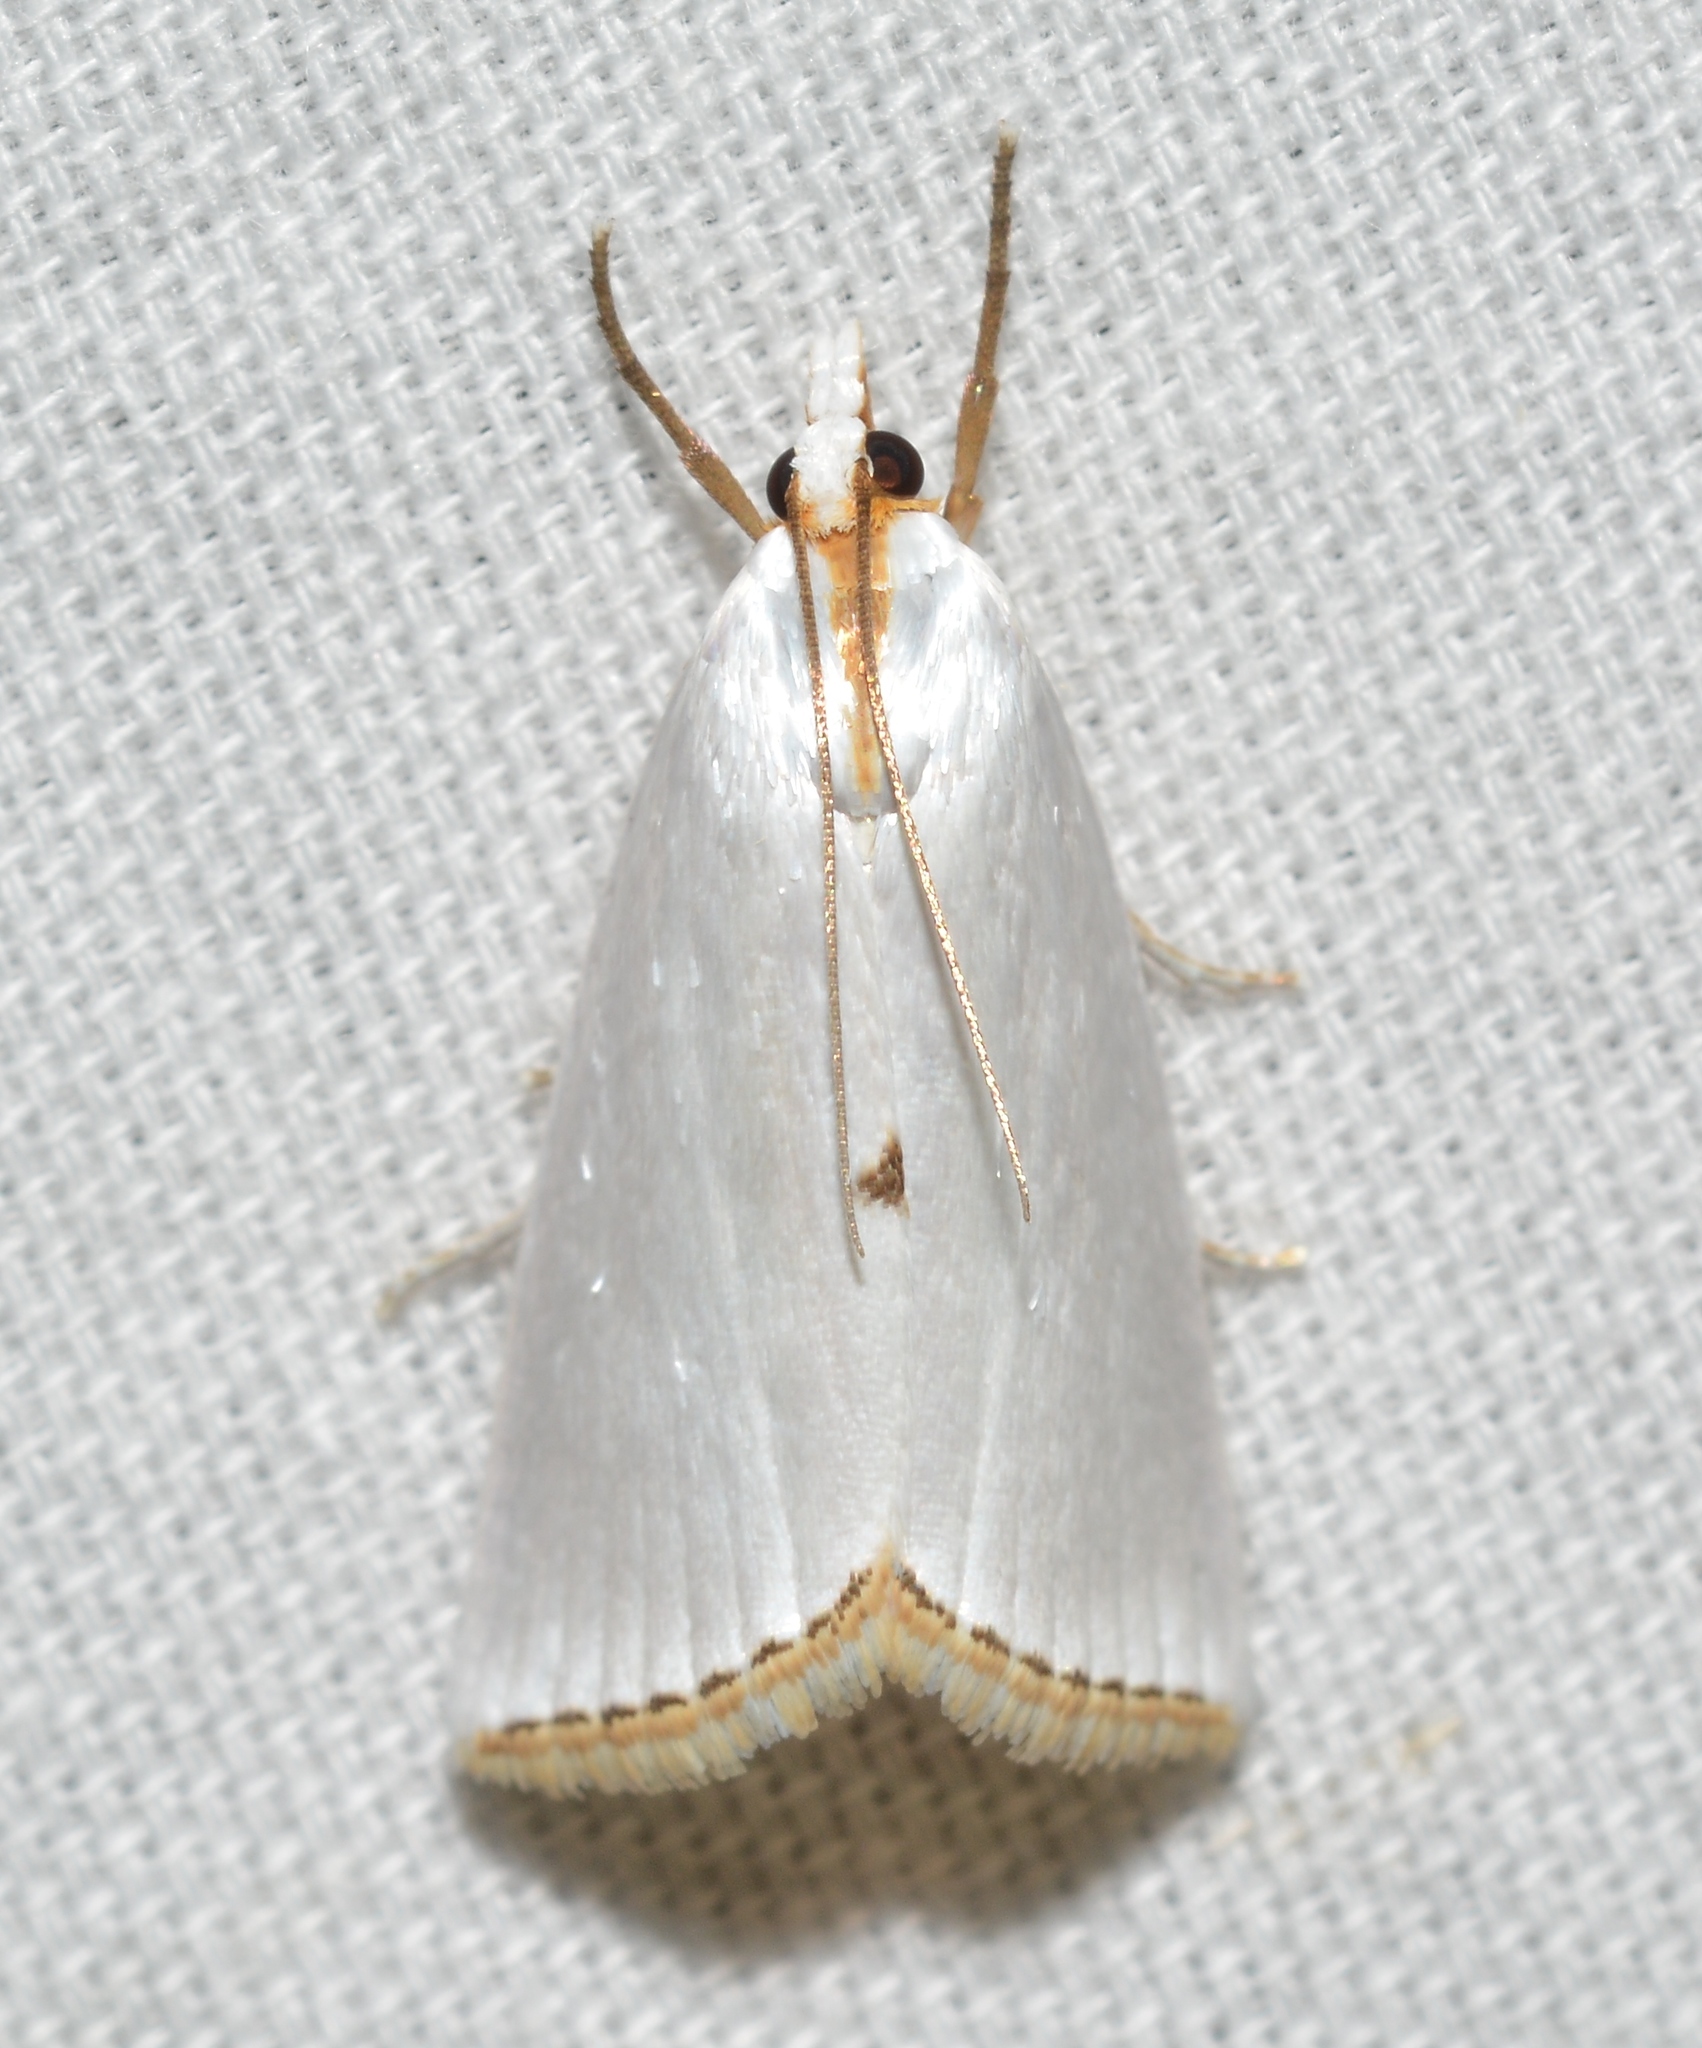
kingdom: Animalia
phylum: Arthropoda
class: Insecta
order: Lepidoptera
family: Crambidae
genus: Argyria
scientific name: Argyria nivalis
